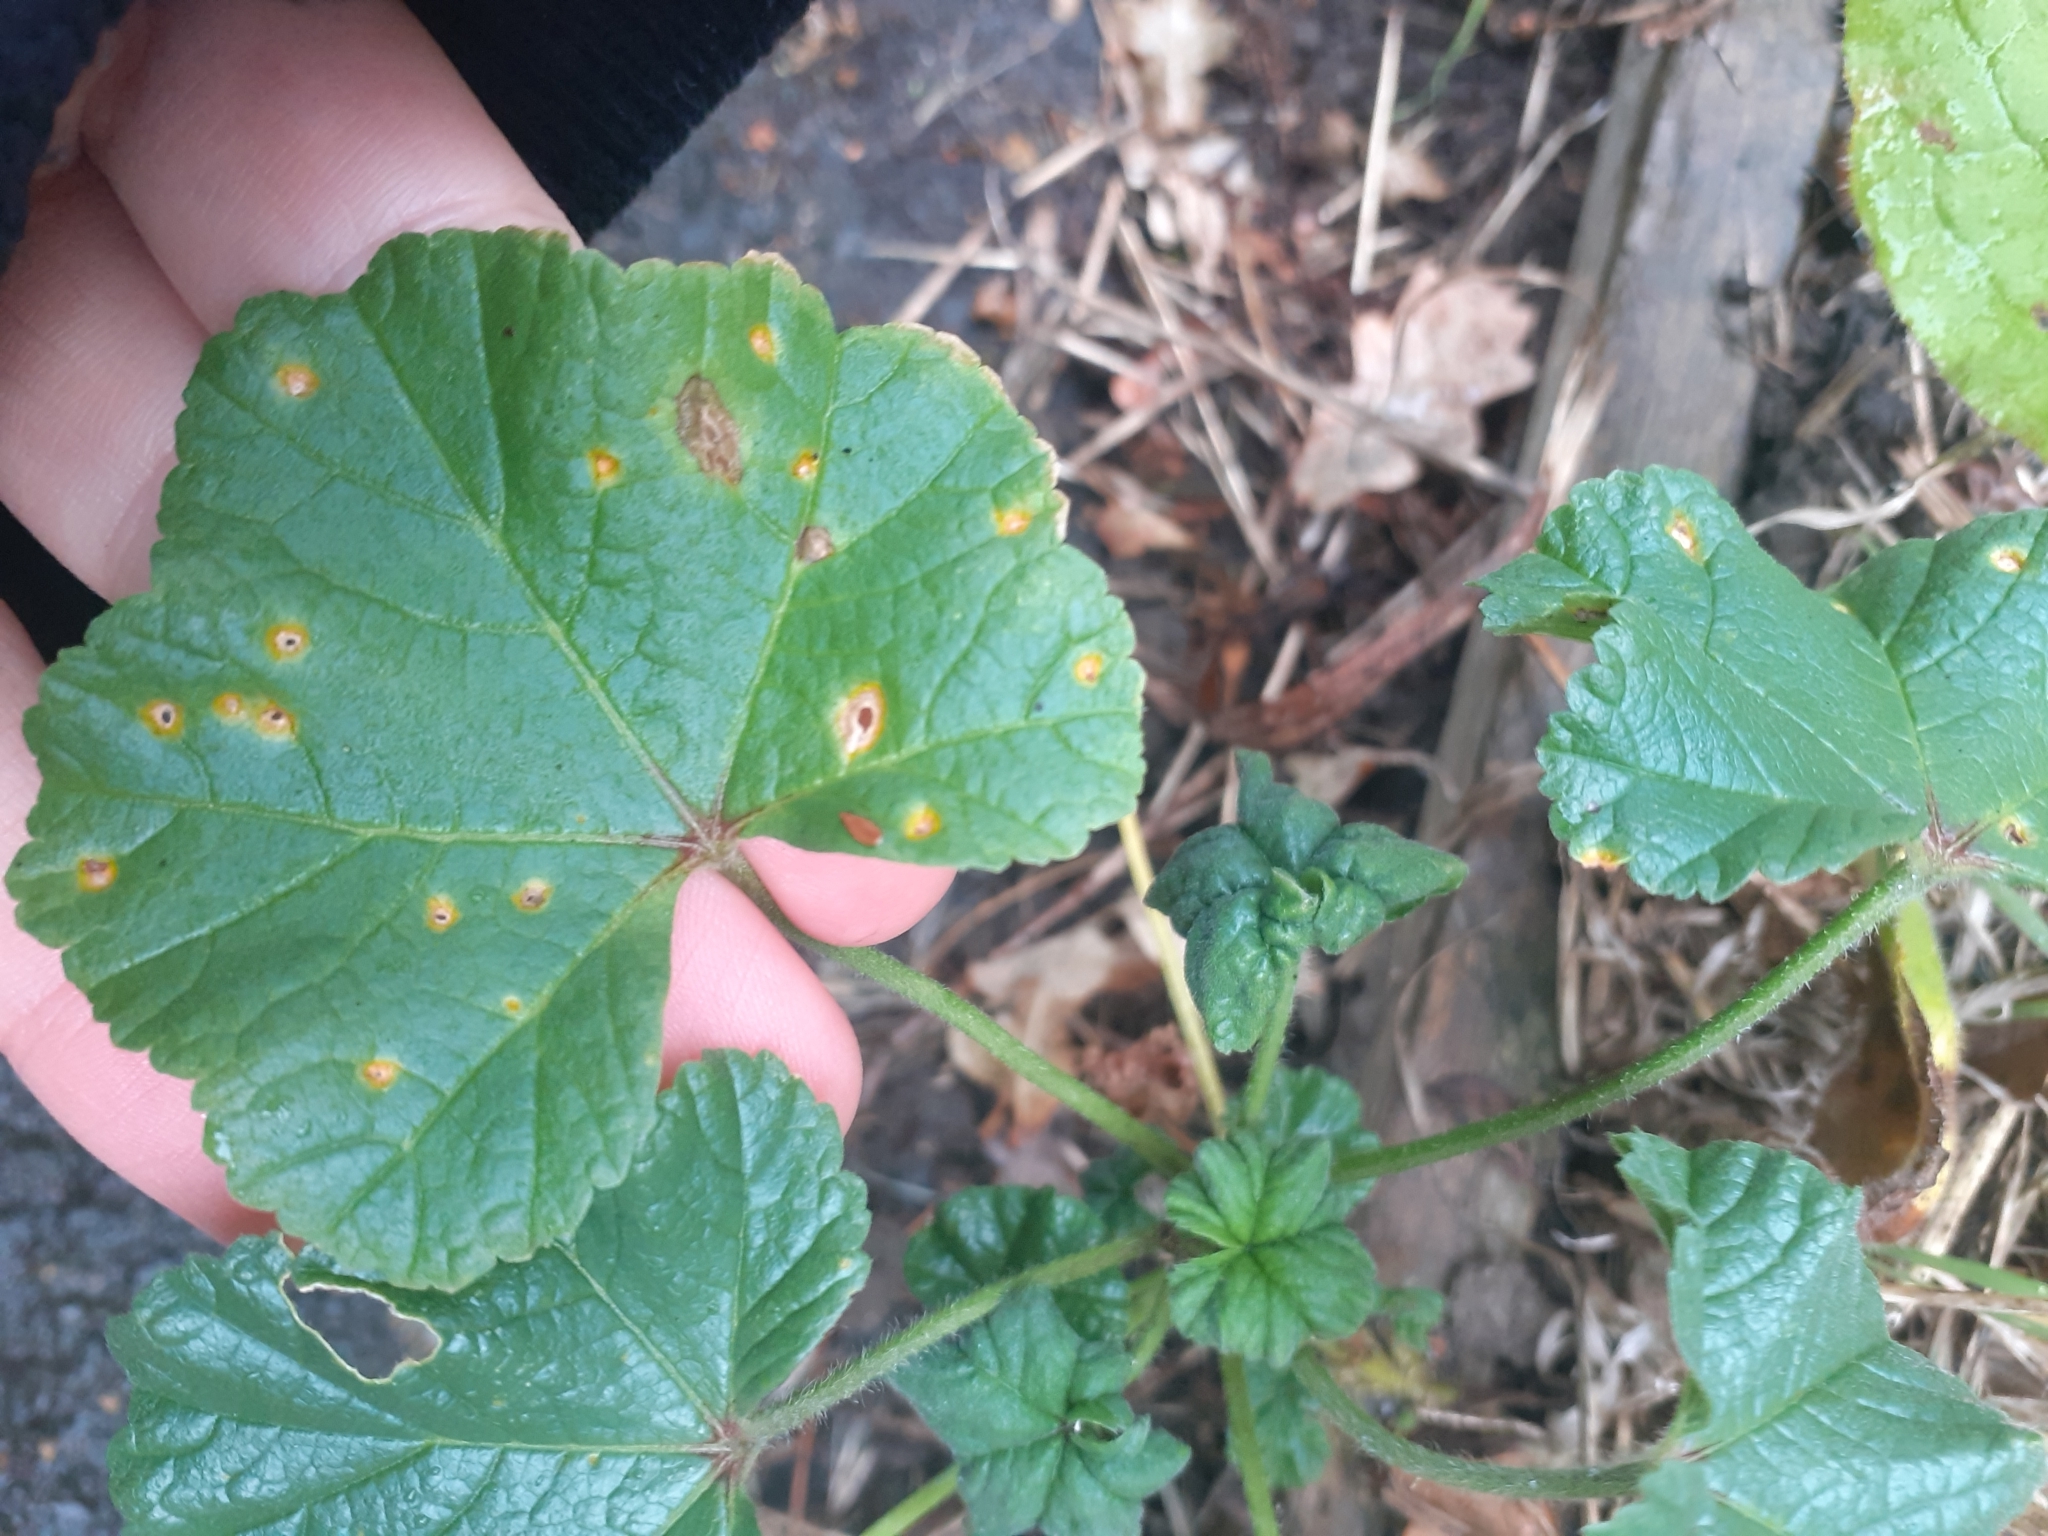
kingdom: Fungi
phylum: Basidiomycota
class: Pucciniomycetes
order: Pucciniales
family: Pucciniaceae
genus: Puccinia
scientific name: Puccinia malvacearum
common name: Hollyhock rust
